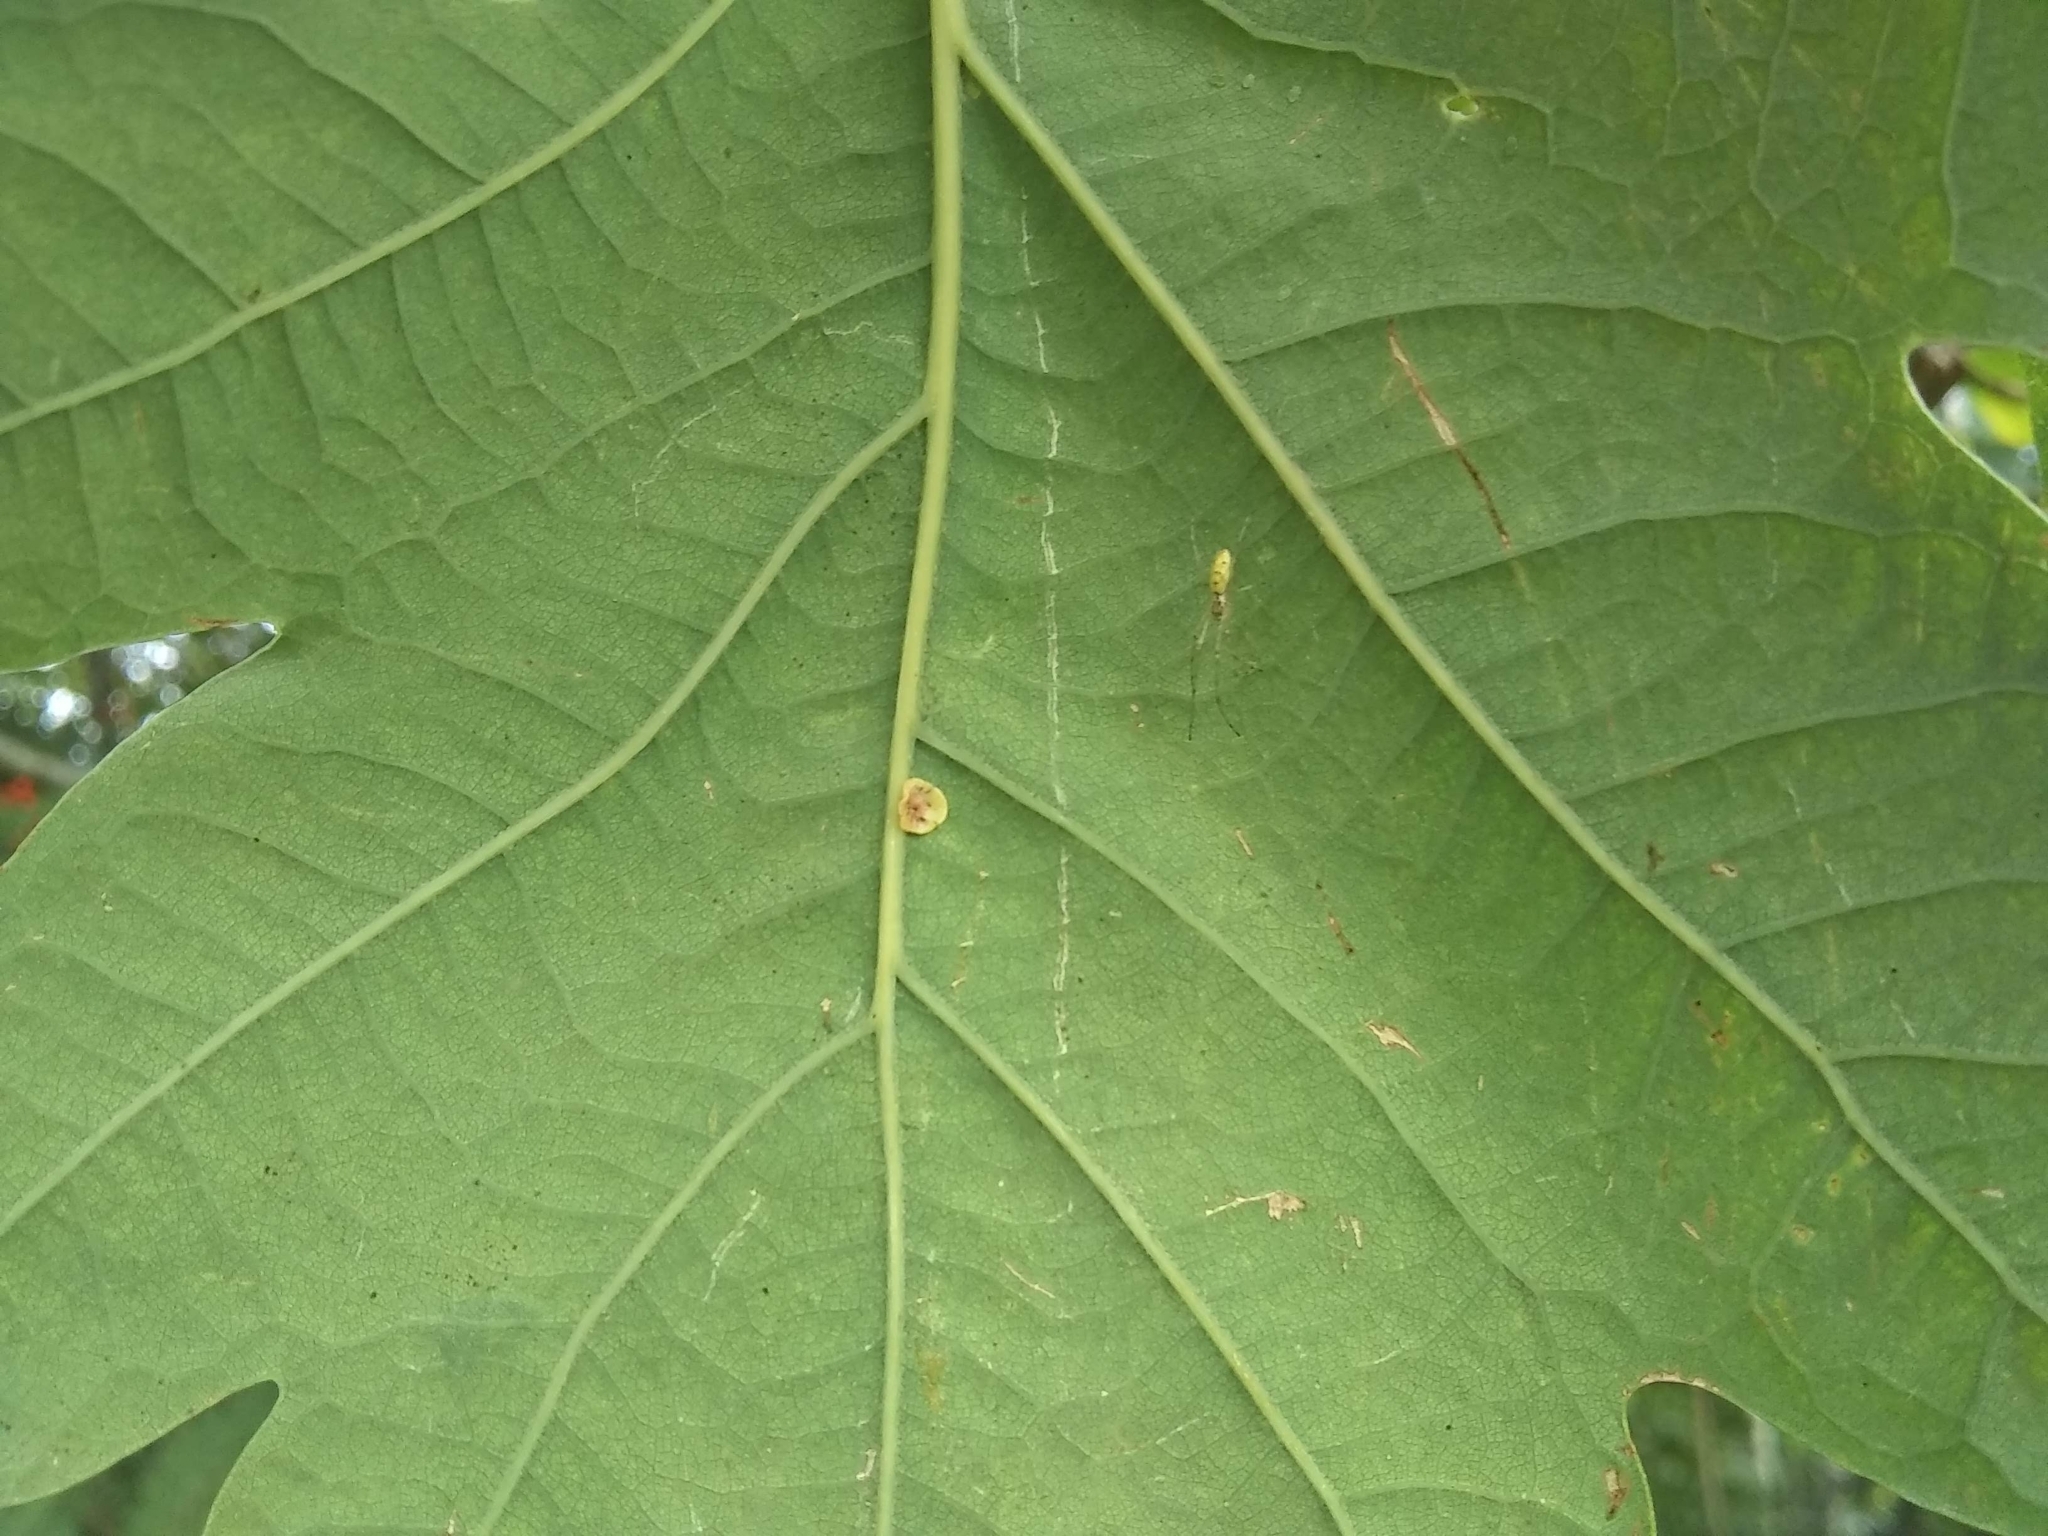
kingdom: Animalia
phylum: Arthropoda
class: Insecta
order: Hymenoptera
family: Cynipidae
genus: Neuroterus
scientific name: Neuroterus albipes
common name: Smooth spangle gall
